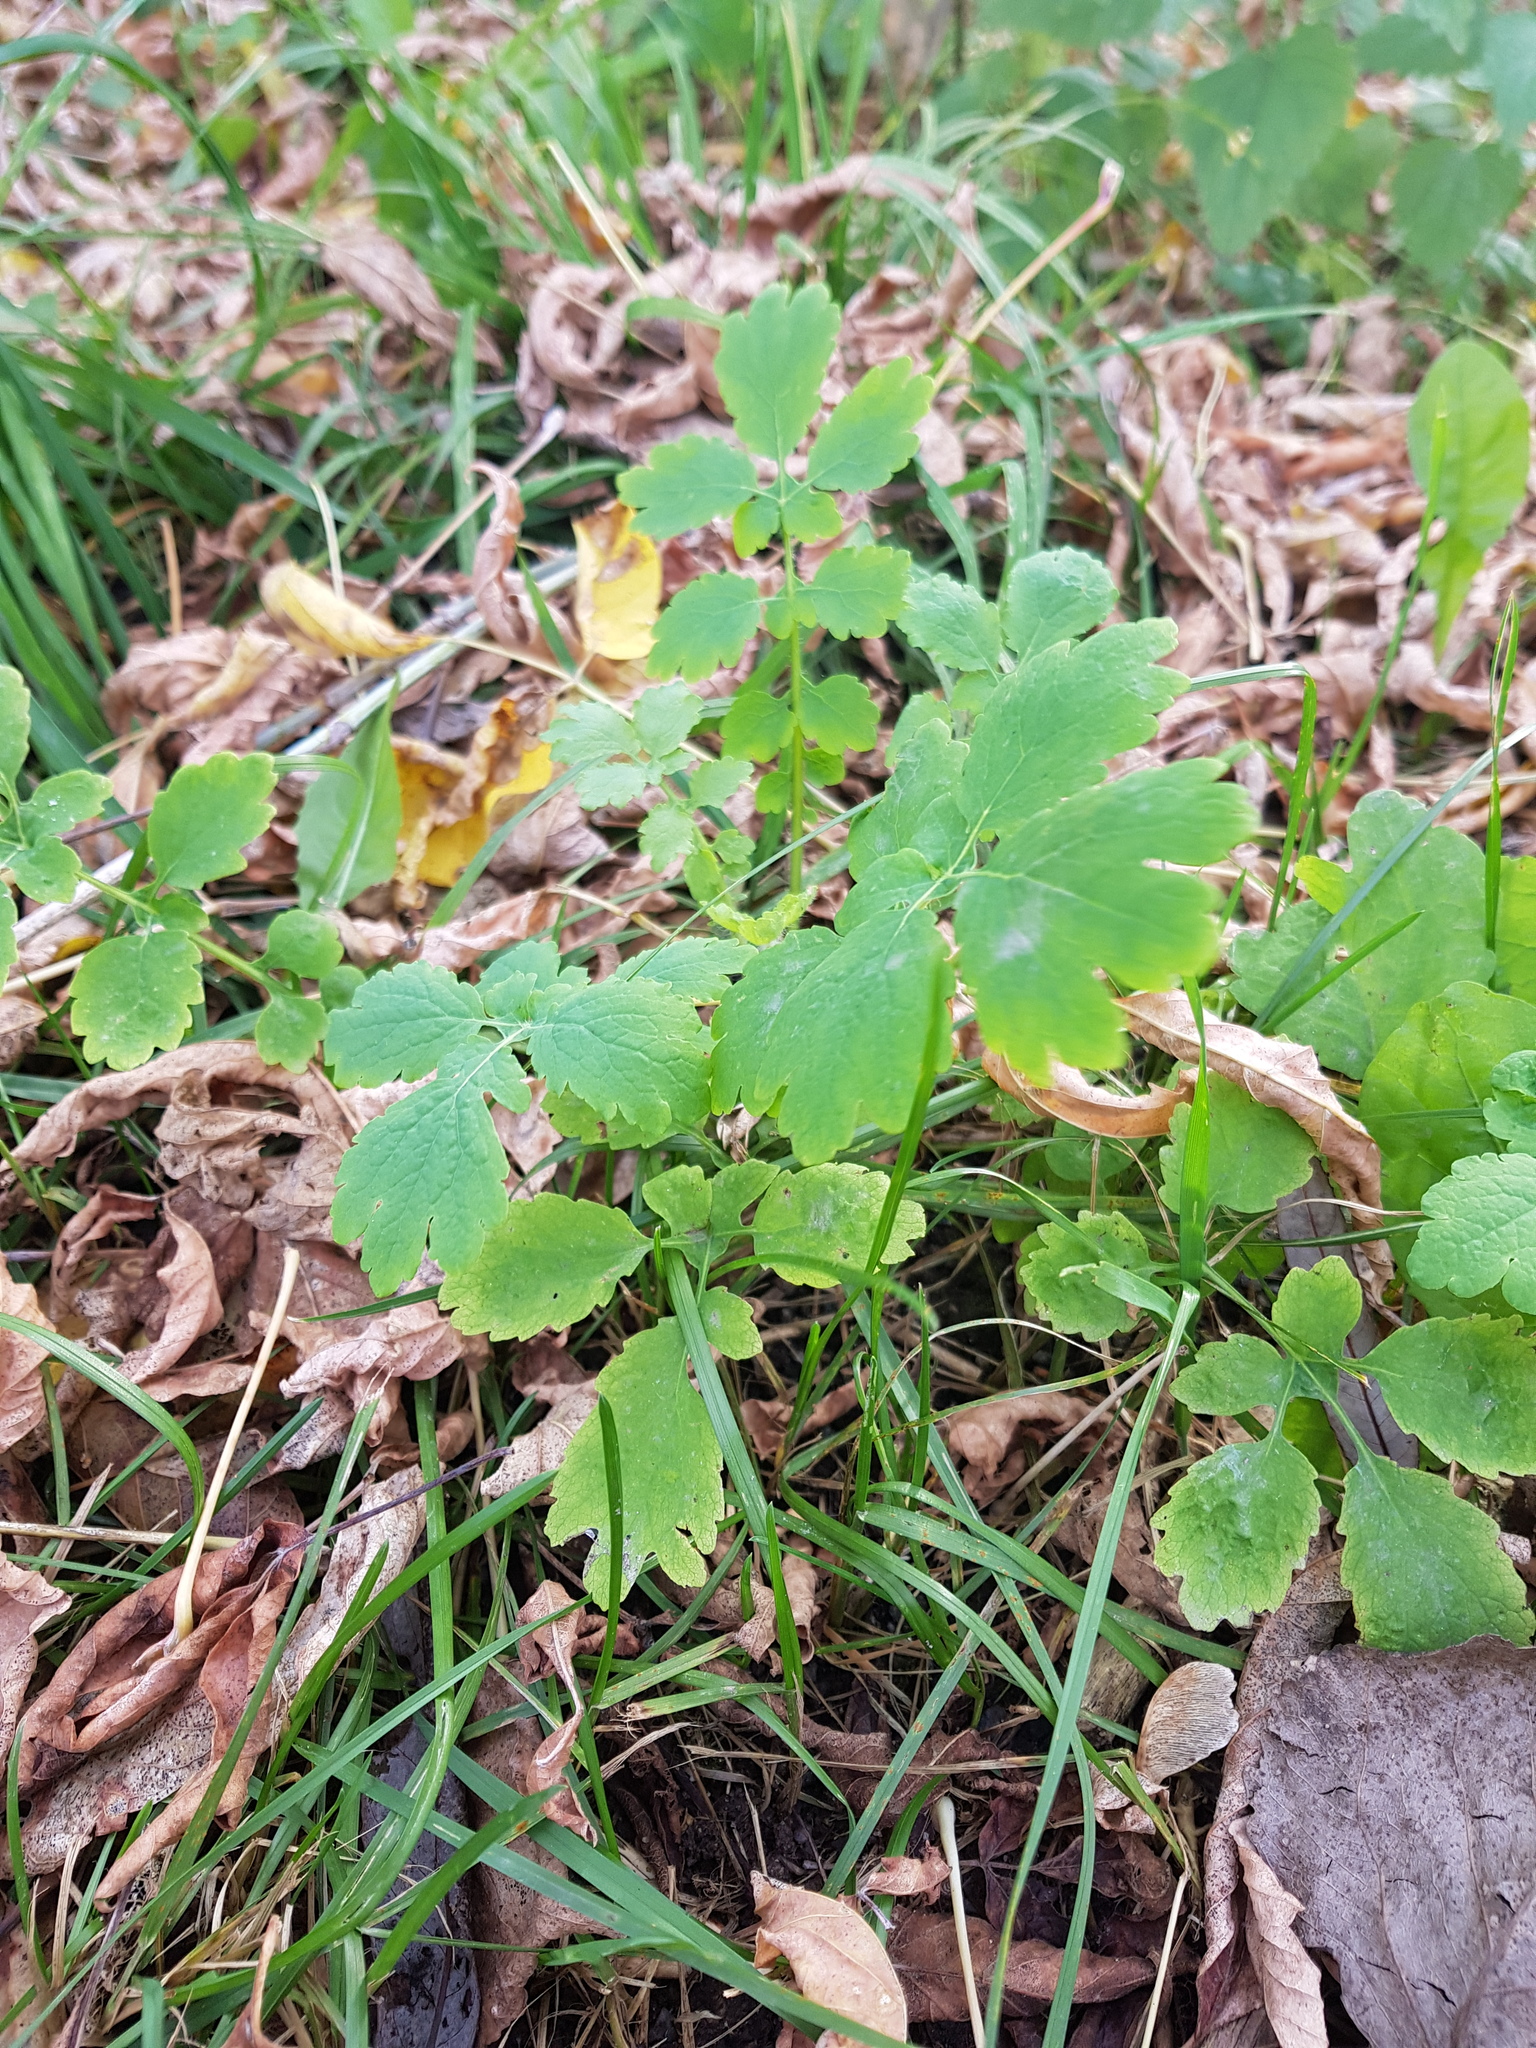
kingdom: Plantae
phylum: Tracheophyta
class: Magnoliopsida
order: Ranunculales
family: Papaveraceae
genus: Chelidonium
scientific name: Chelidonium majus
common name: Greater celandine
